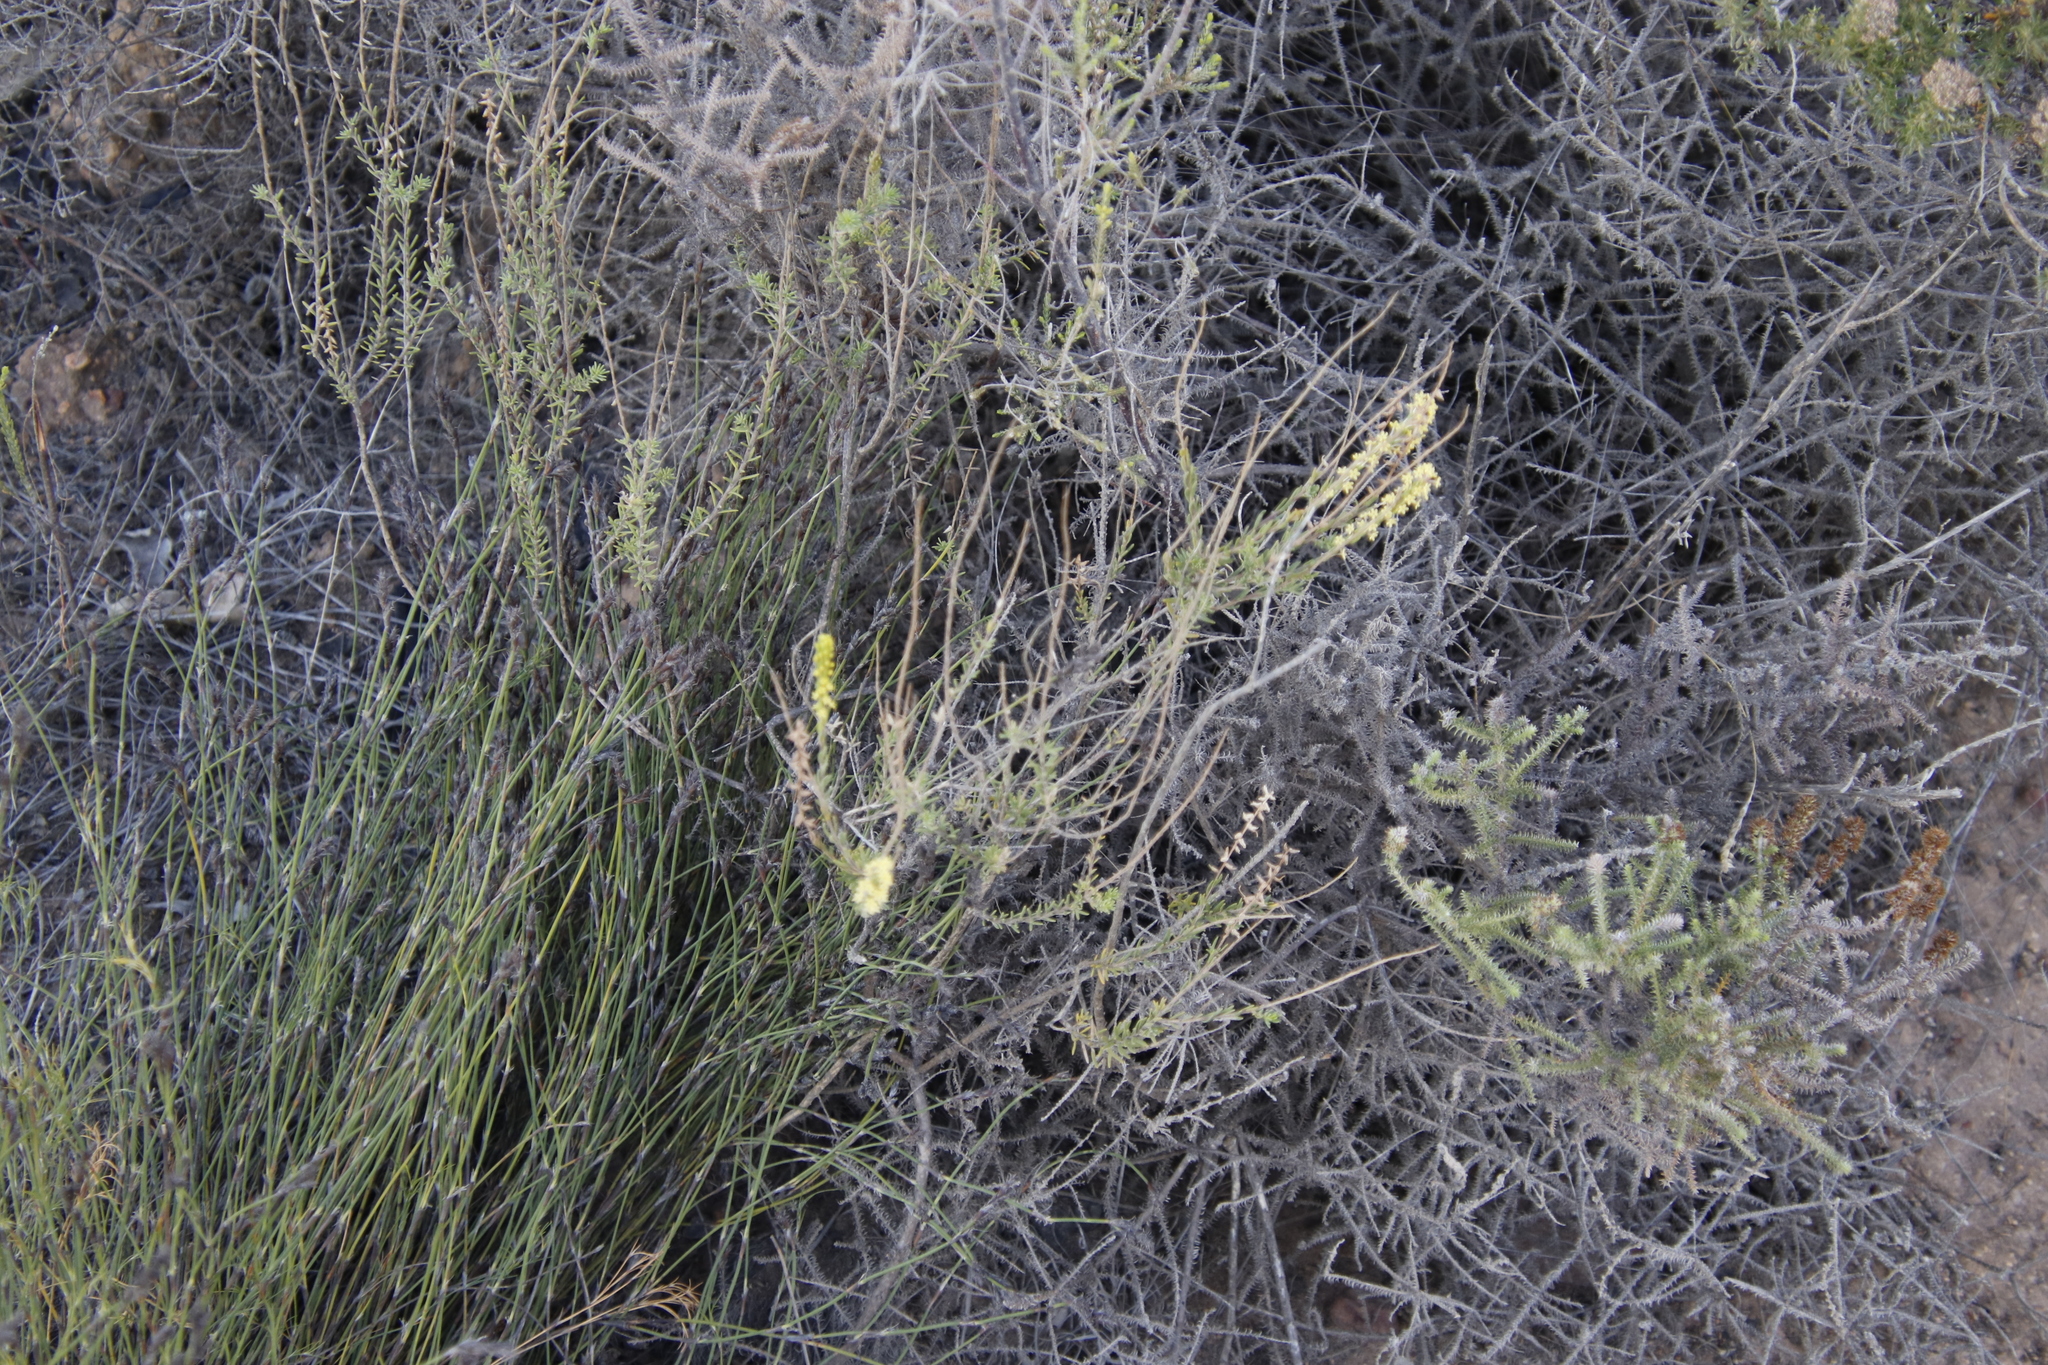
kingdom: Plantae
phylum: Tracheophyta
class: Magnoliopsida
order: Lamiales
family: Scrophulariaceae
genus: Microdon
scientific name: Microdon dubius
